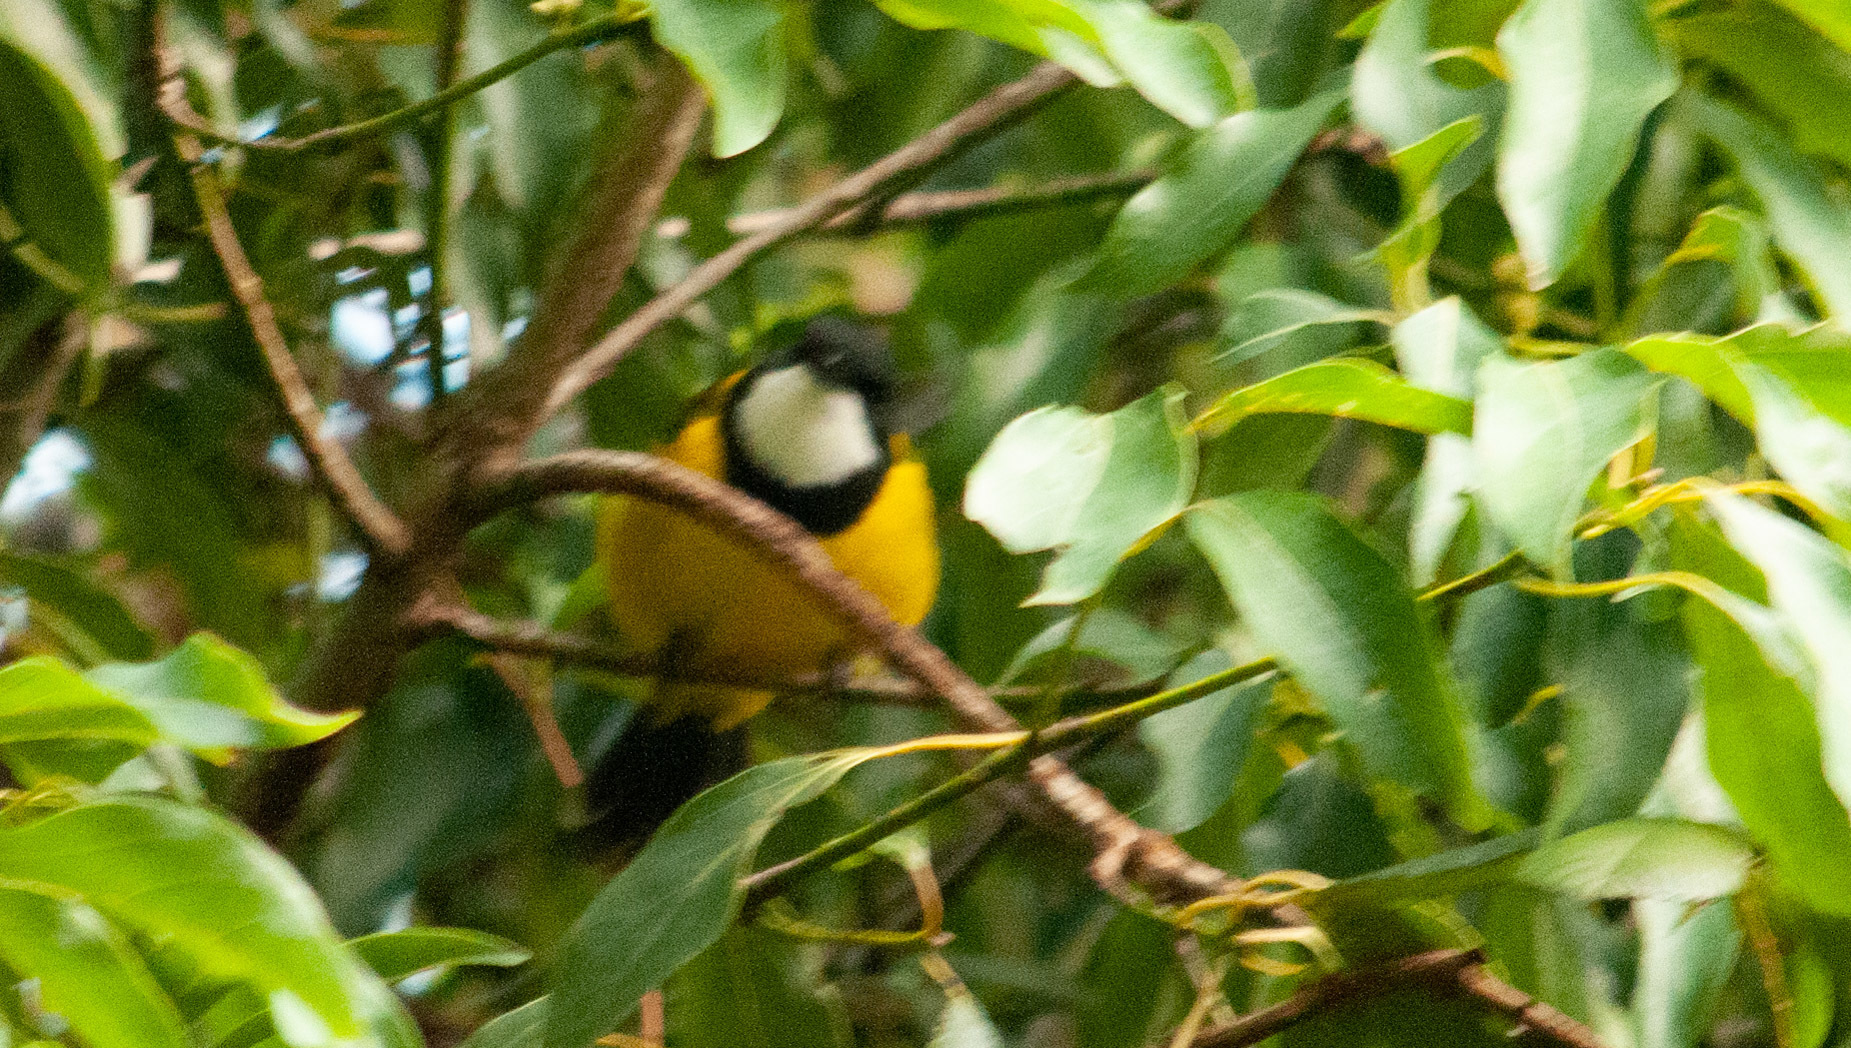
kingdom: Animalia
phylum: Chordata
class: Aves
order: Passeriformes
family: Pachycephalidae
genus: Pachycephala
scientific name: Pachycephala pectoralis
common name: Australian golden whistler
